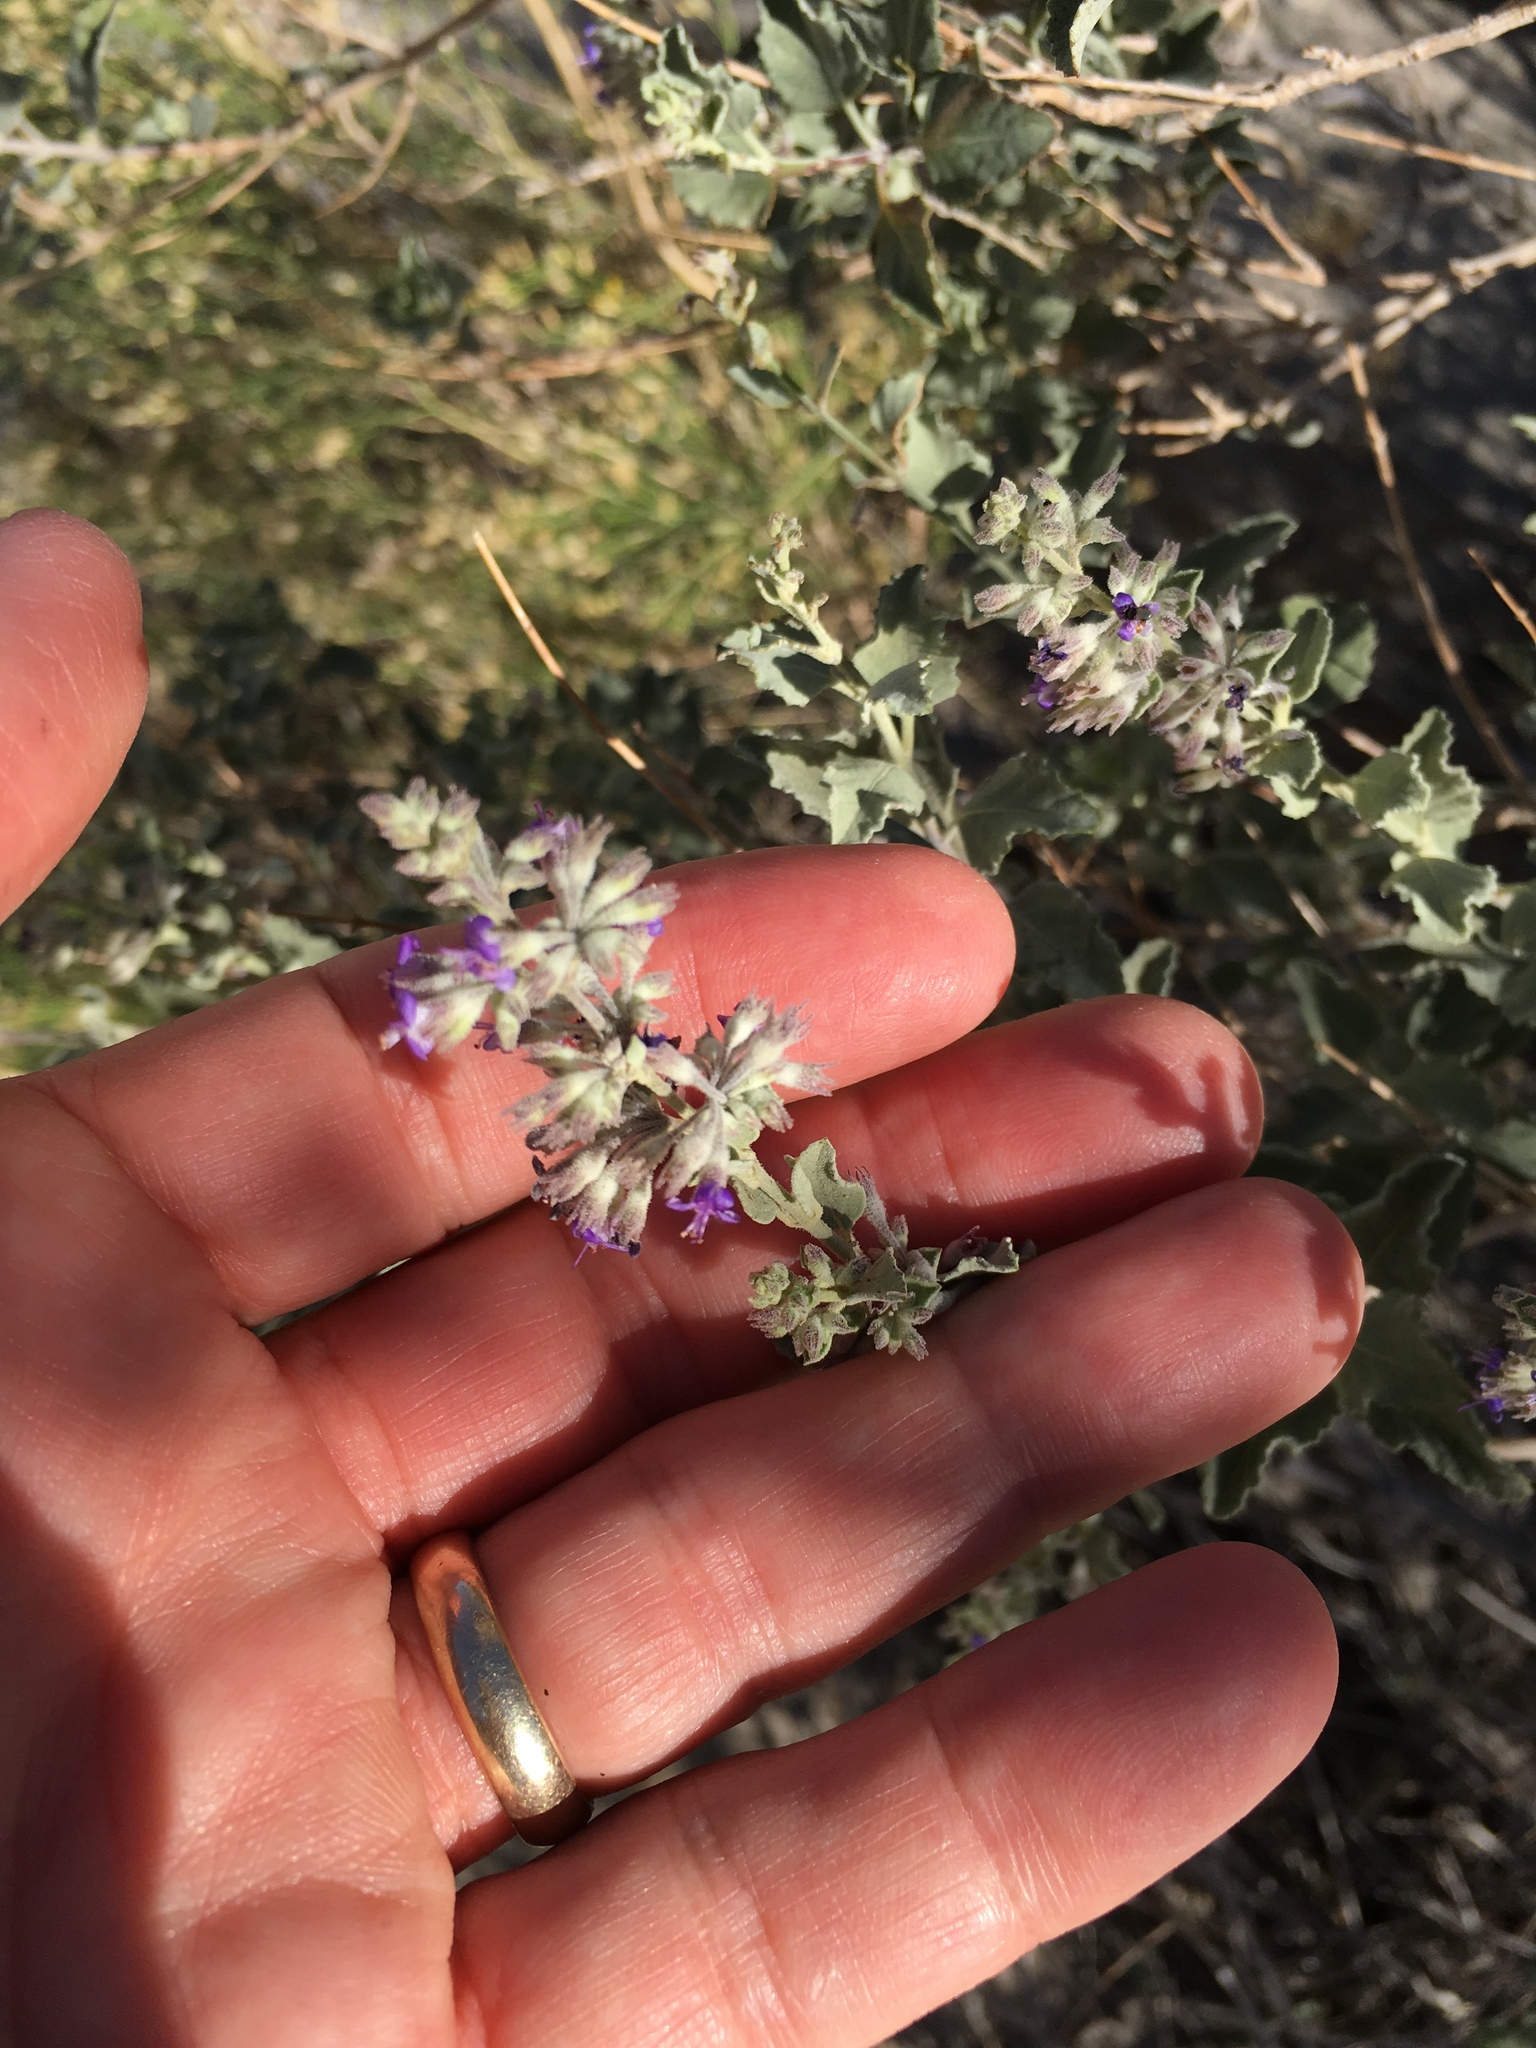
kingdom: Plantae
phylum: Tracheophyta
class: Magnoliopsida
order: Lamiales
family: Lamiaceae
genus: Condea
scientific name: Condea emoryi
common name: Chia
